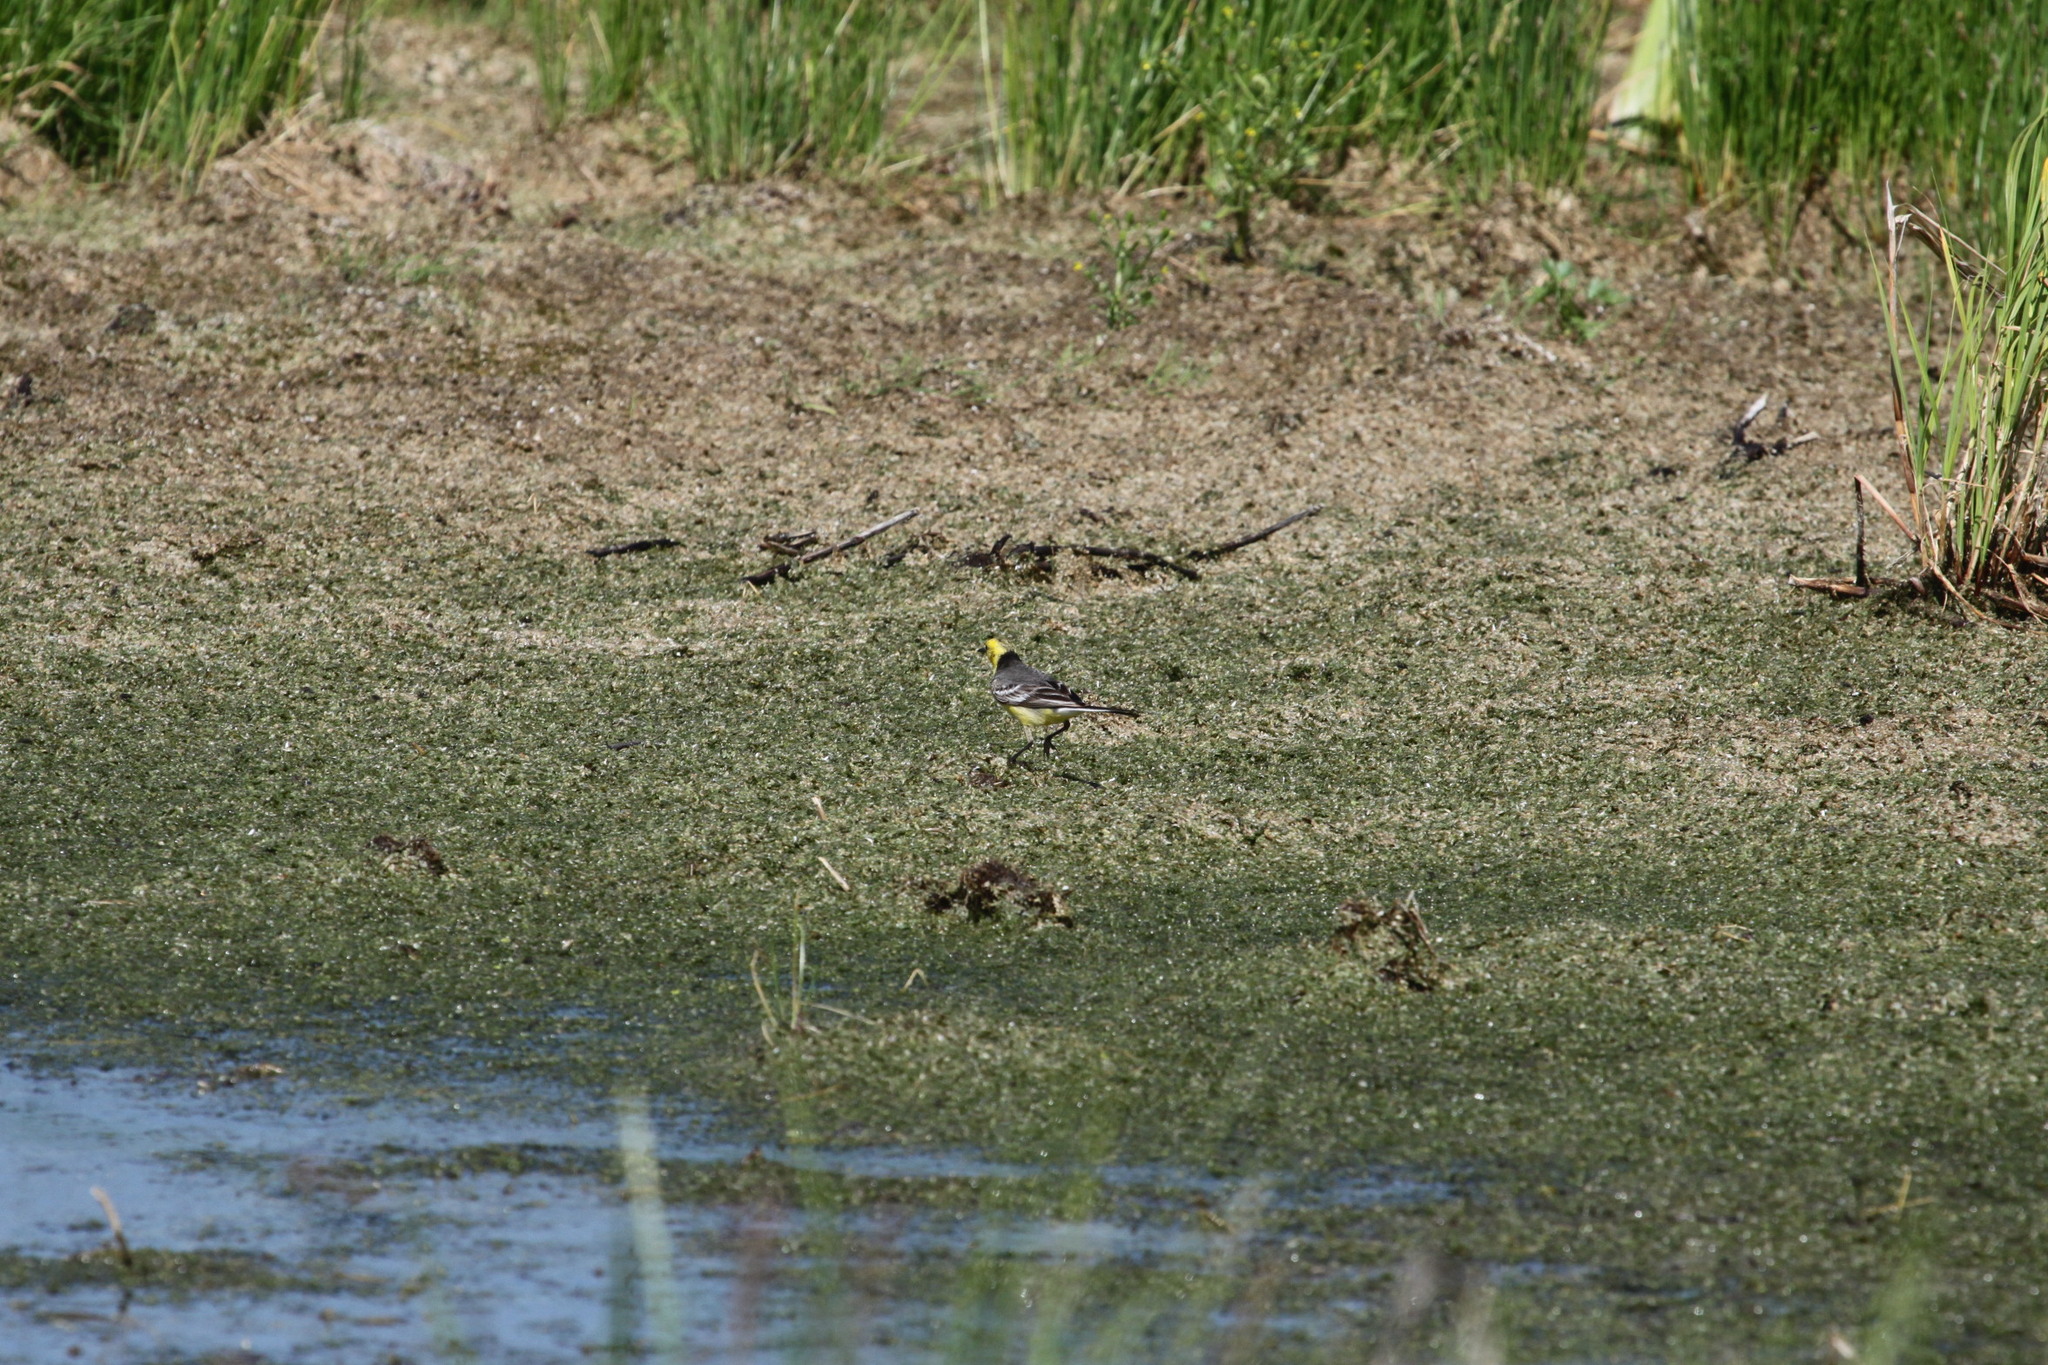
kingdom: Animalia
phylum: Chordata
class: Aves
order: Passeriformes
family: Motacillidae
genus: Motacilla
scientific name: Motacilla citreola
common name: Citrine wagtail
